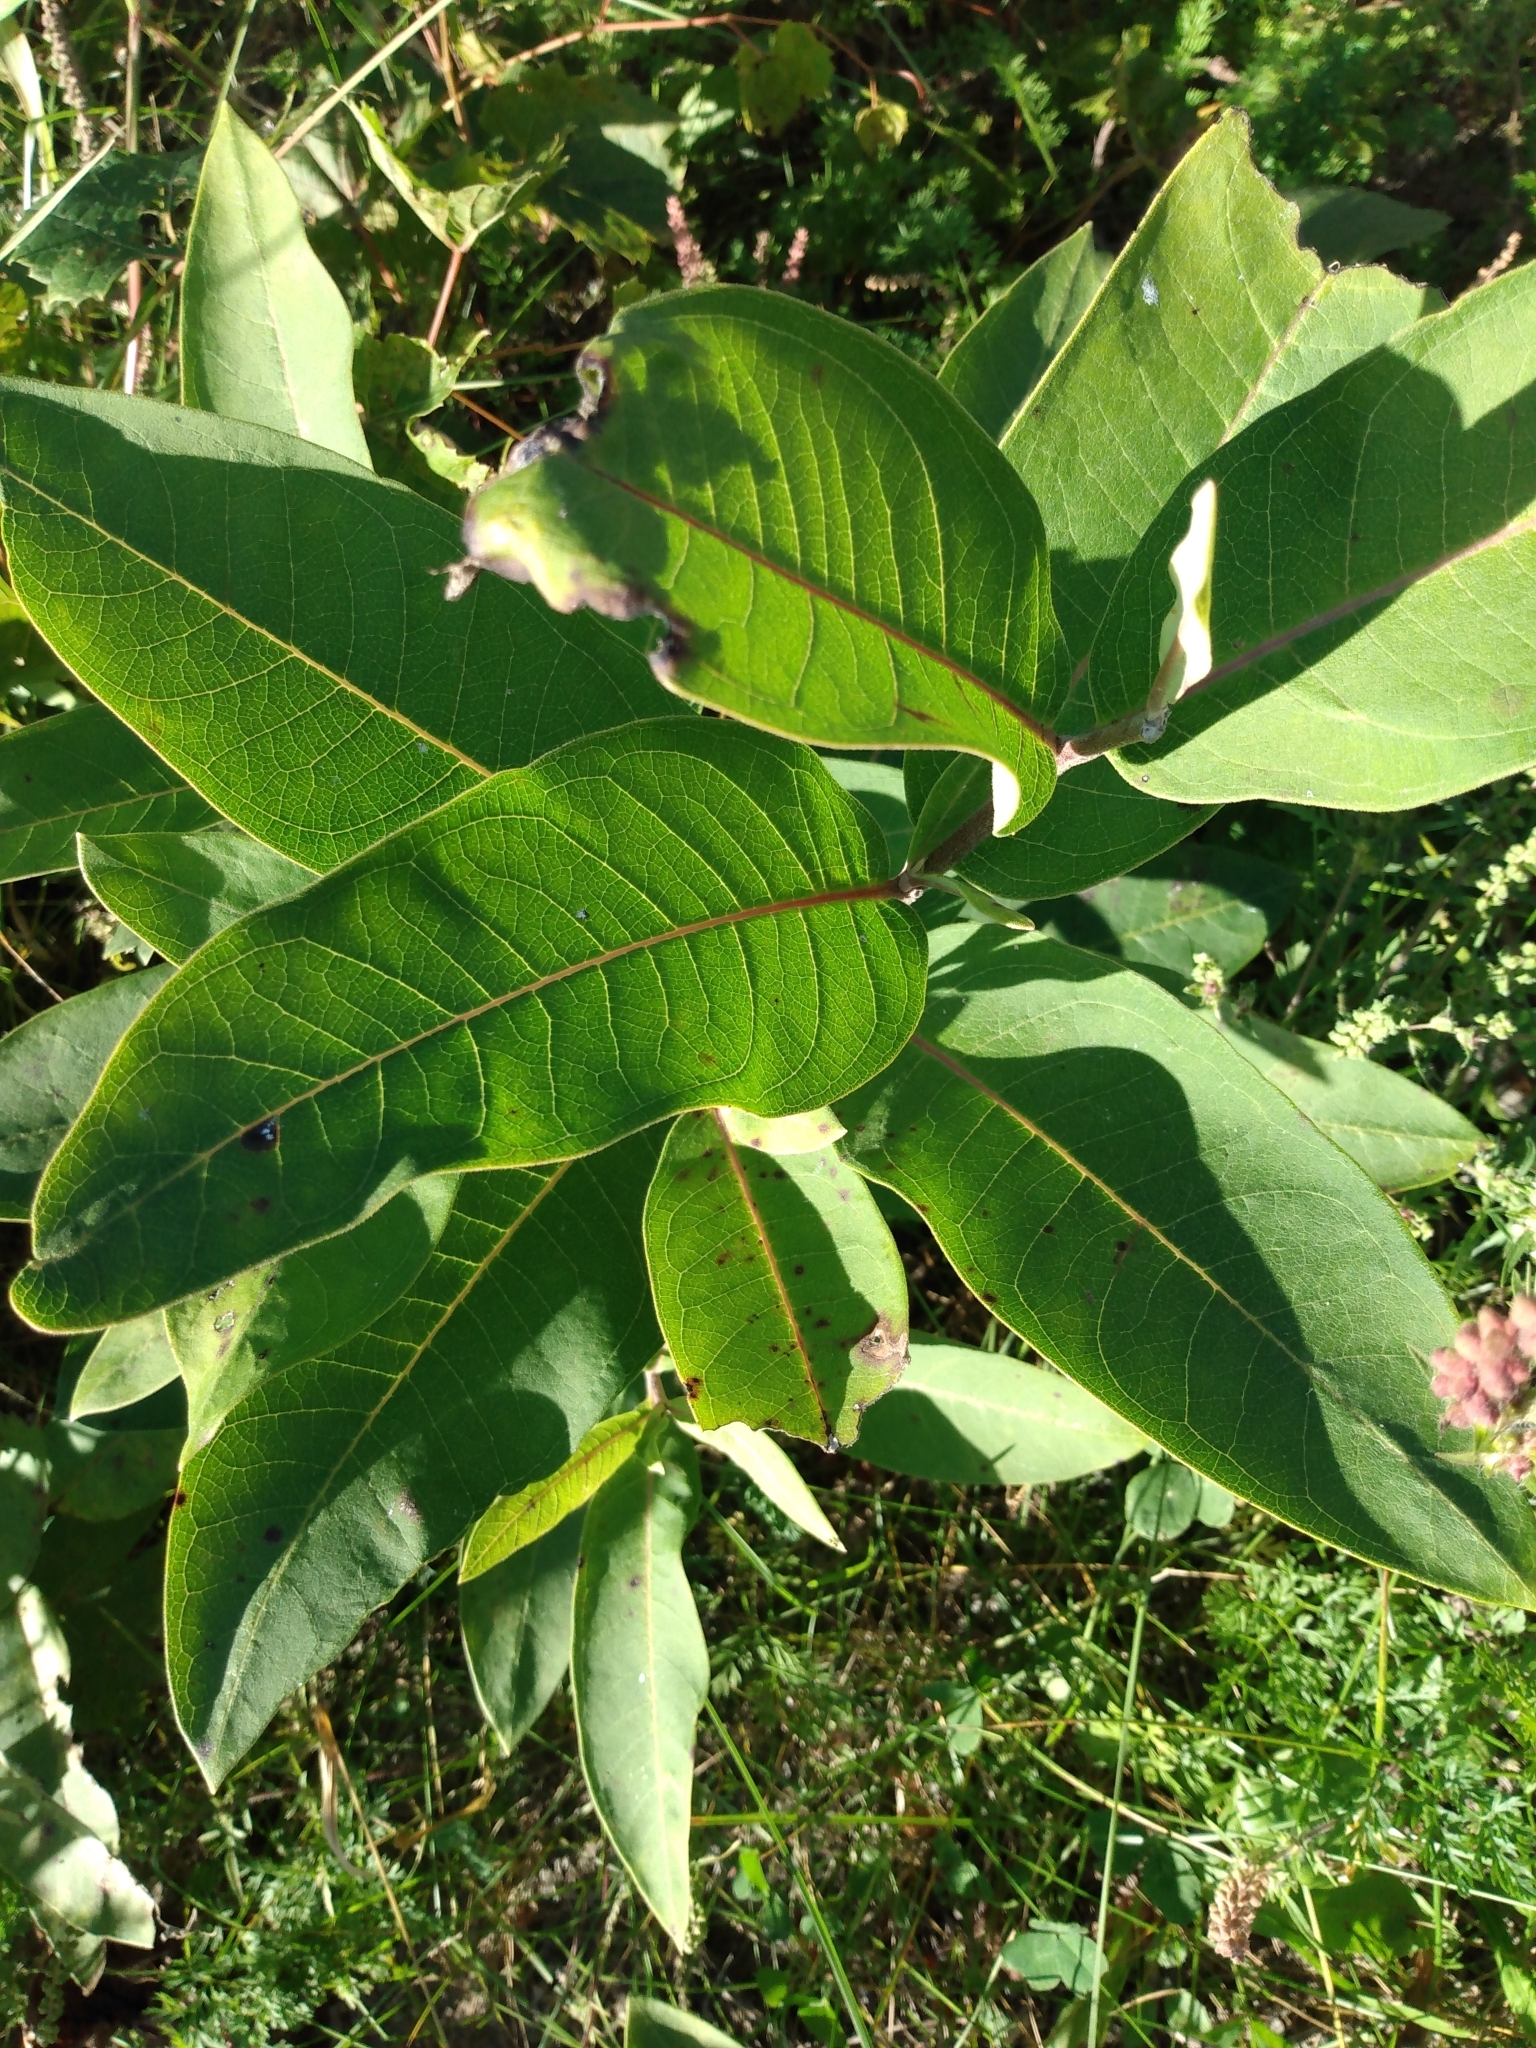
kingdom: Plantae
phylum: Tracheophyta
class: Magnoliopsida
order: Gentianales
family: Apocynaceae
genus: Asclepias
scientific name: Asclepias syriaca
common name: Common milkweed
